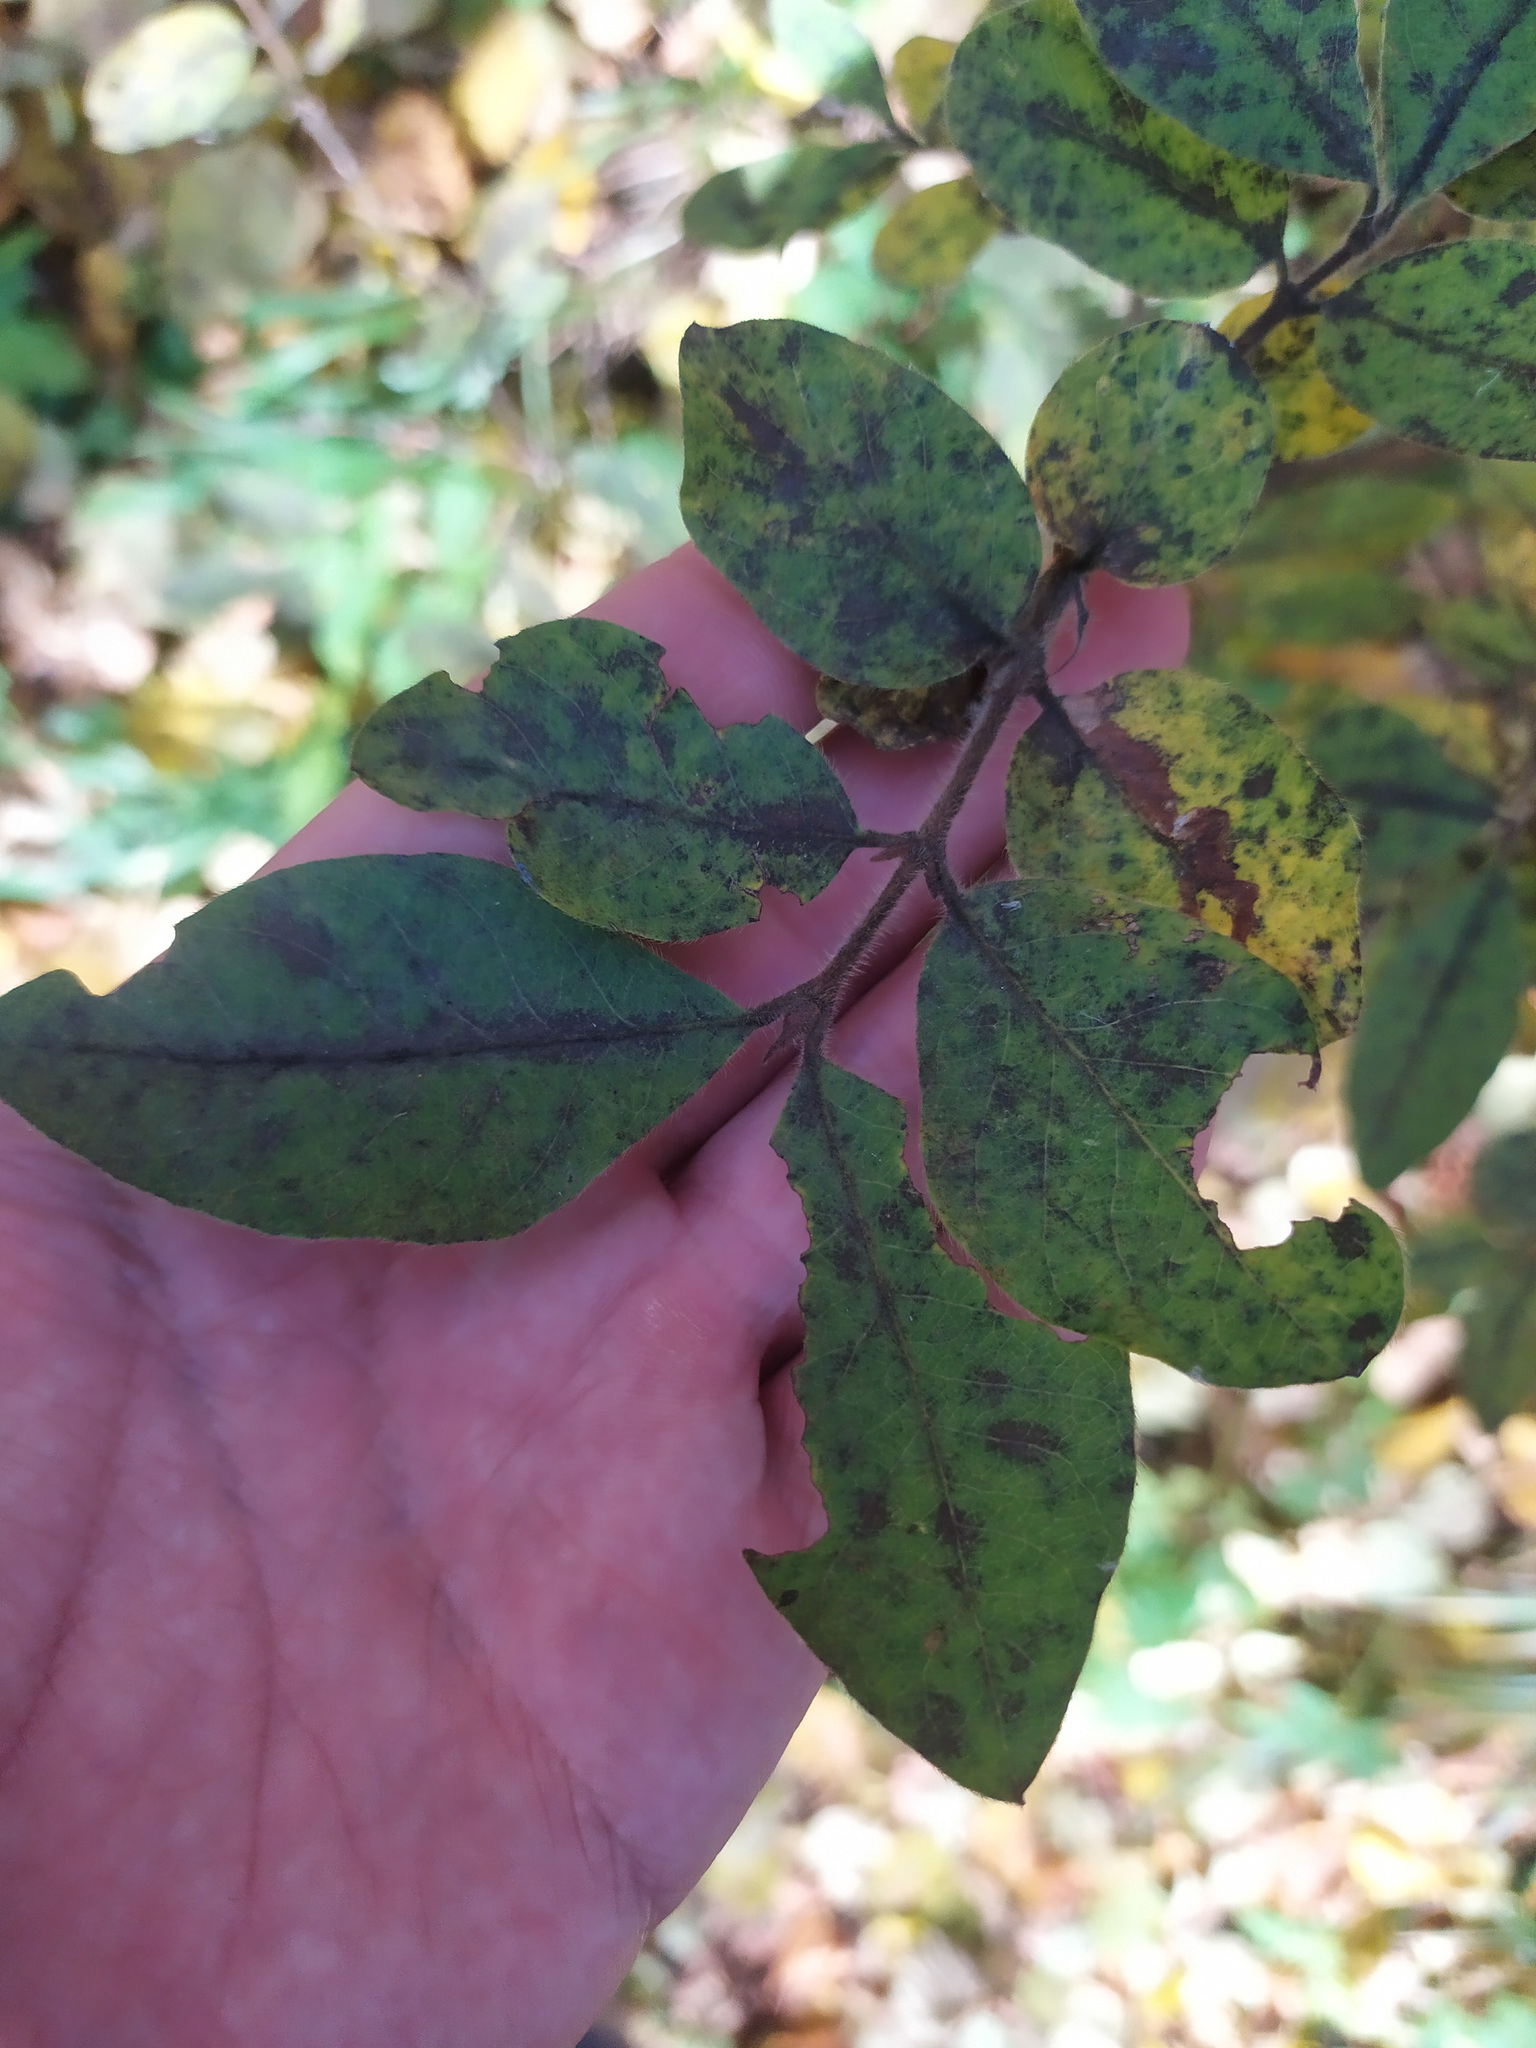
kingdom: Plantae
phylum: Tracheophyta
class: Magnoliopsida
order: Dipsacales
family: Caprifoliaceae
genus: Lonicera
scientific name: Lonicera caerulea
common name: Blue honeysuckle
